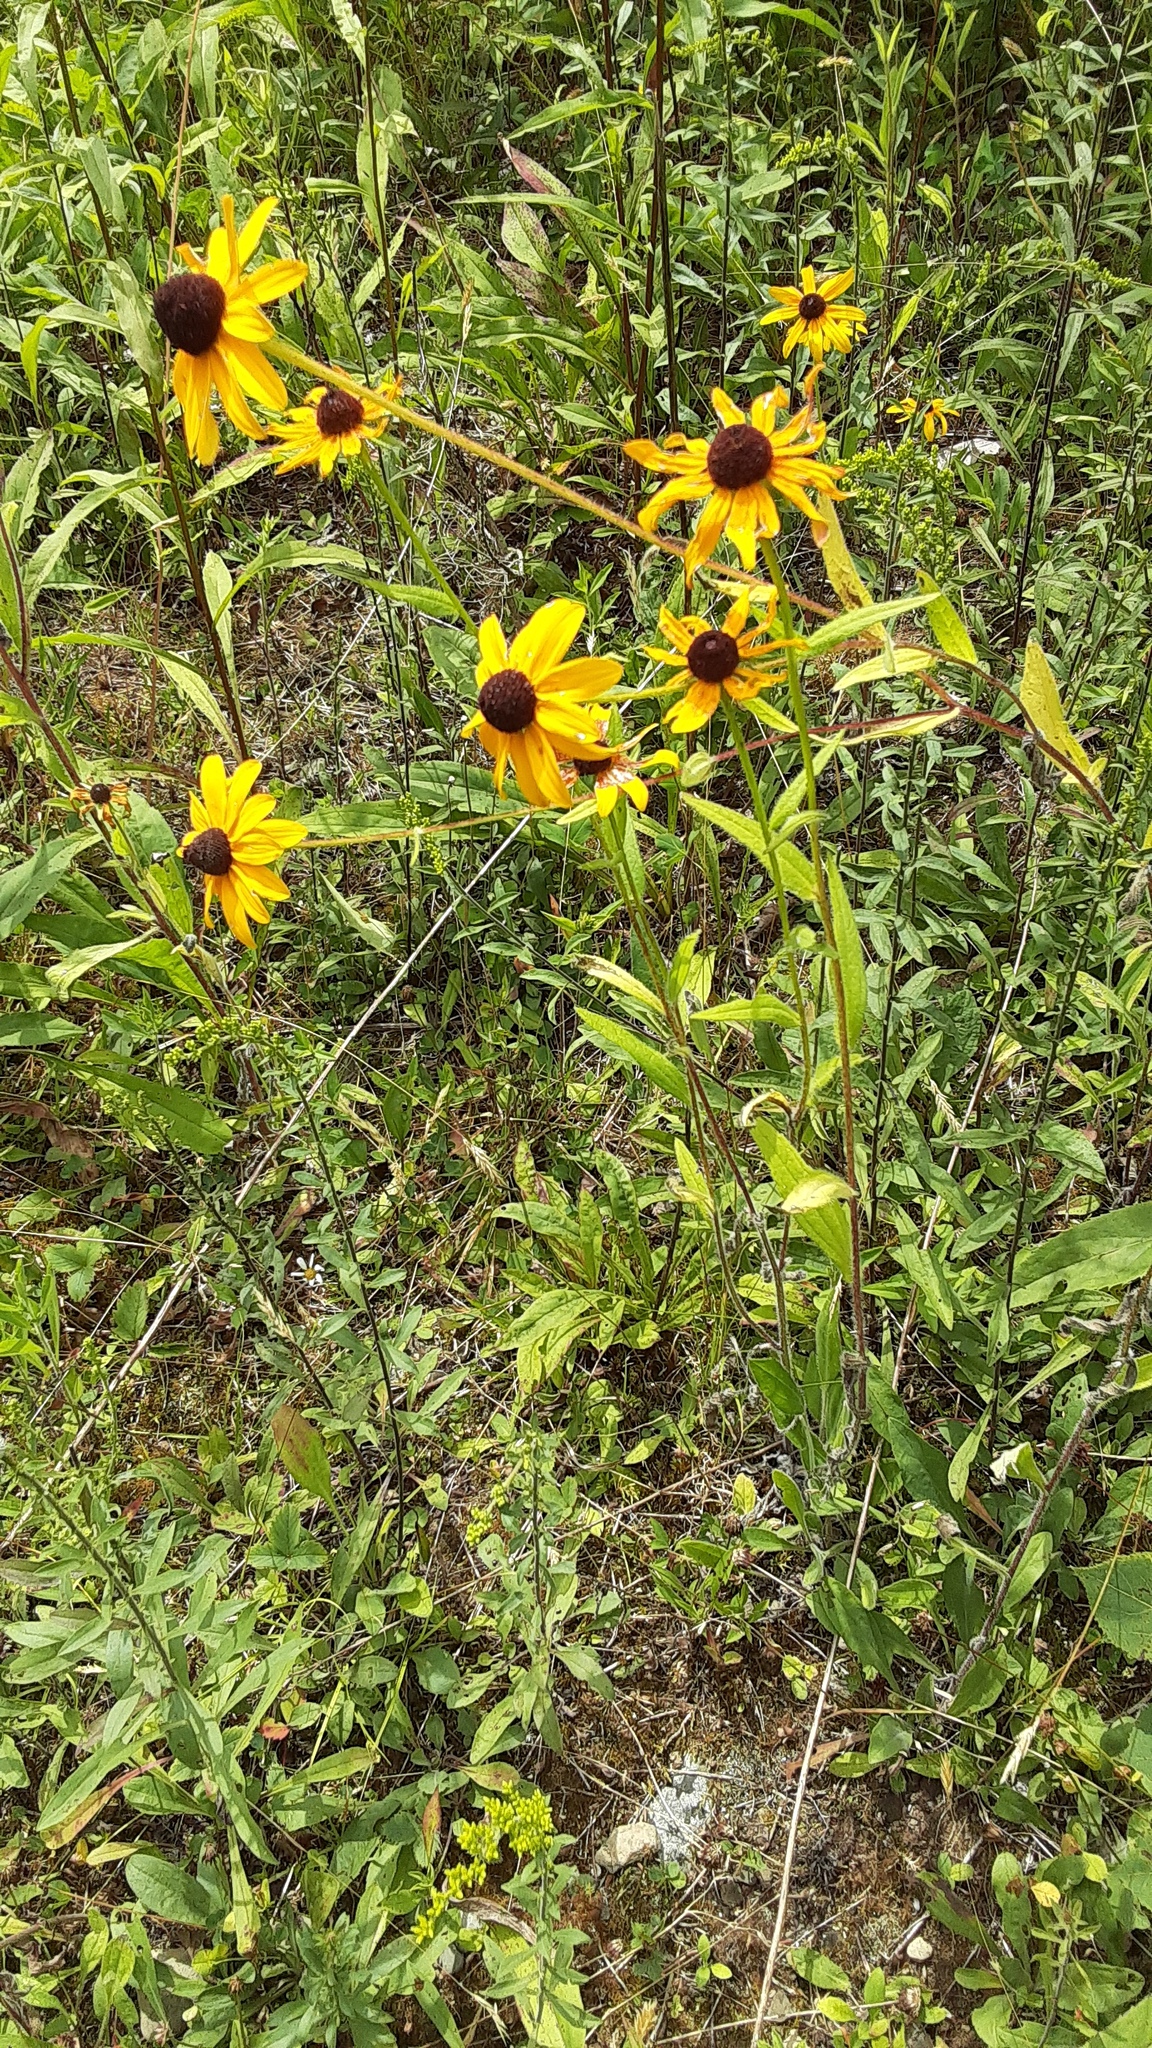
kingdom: Plantae
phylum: Tracheophyta
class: Magnoliopsida
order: Asterales
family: Asteraceae
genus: Rudbeckia
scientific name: Rudbeckia hirta
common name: Black-eyed-susan
